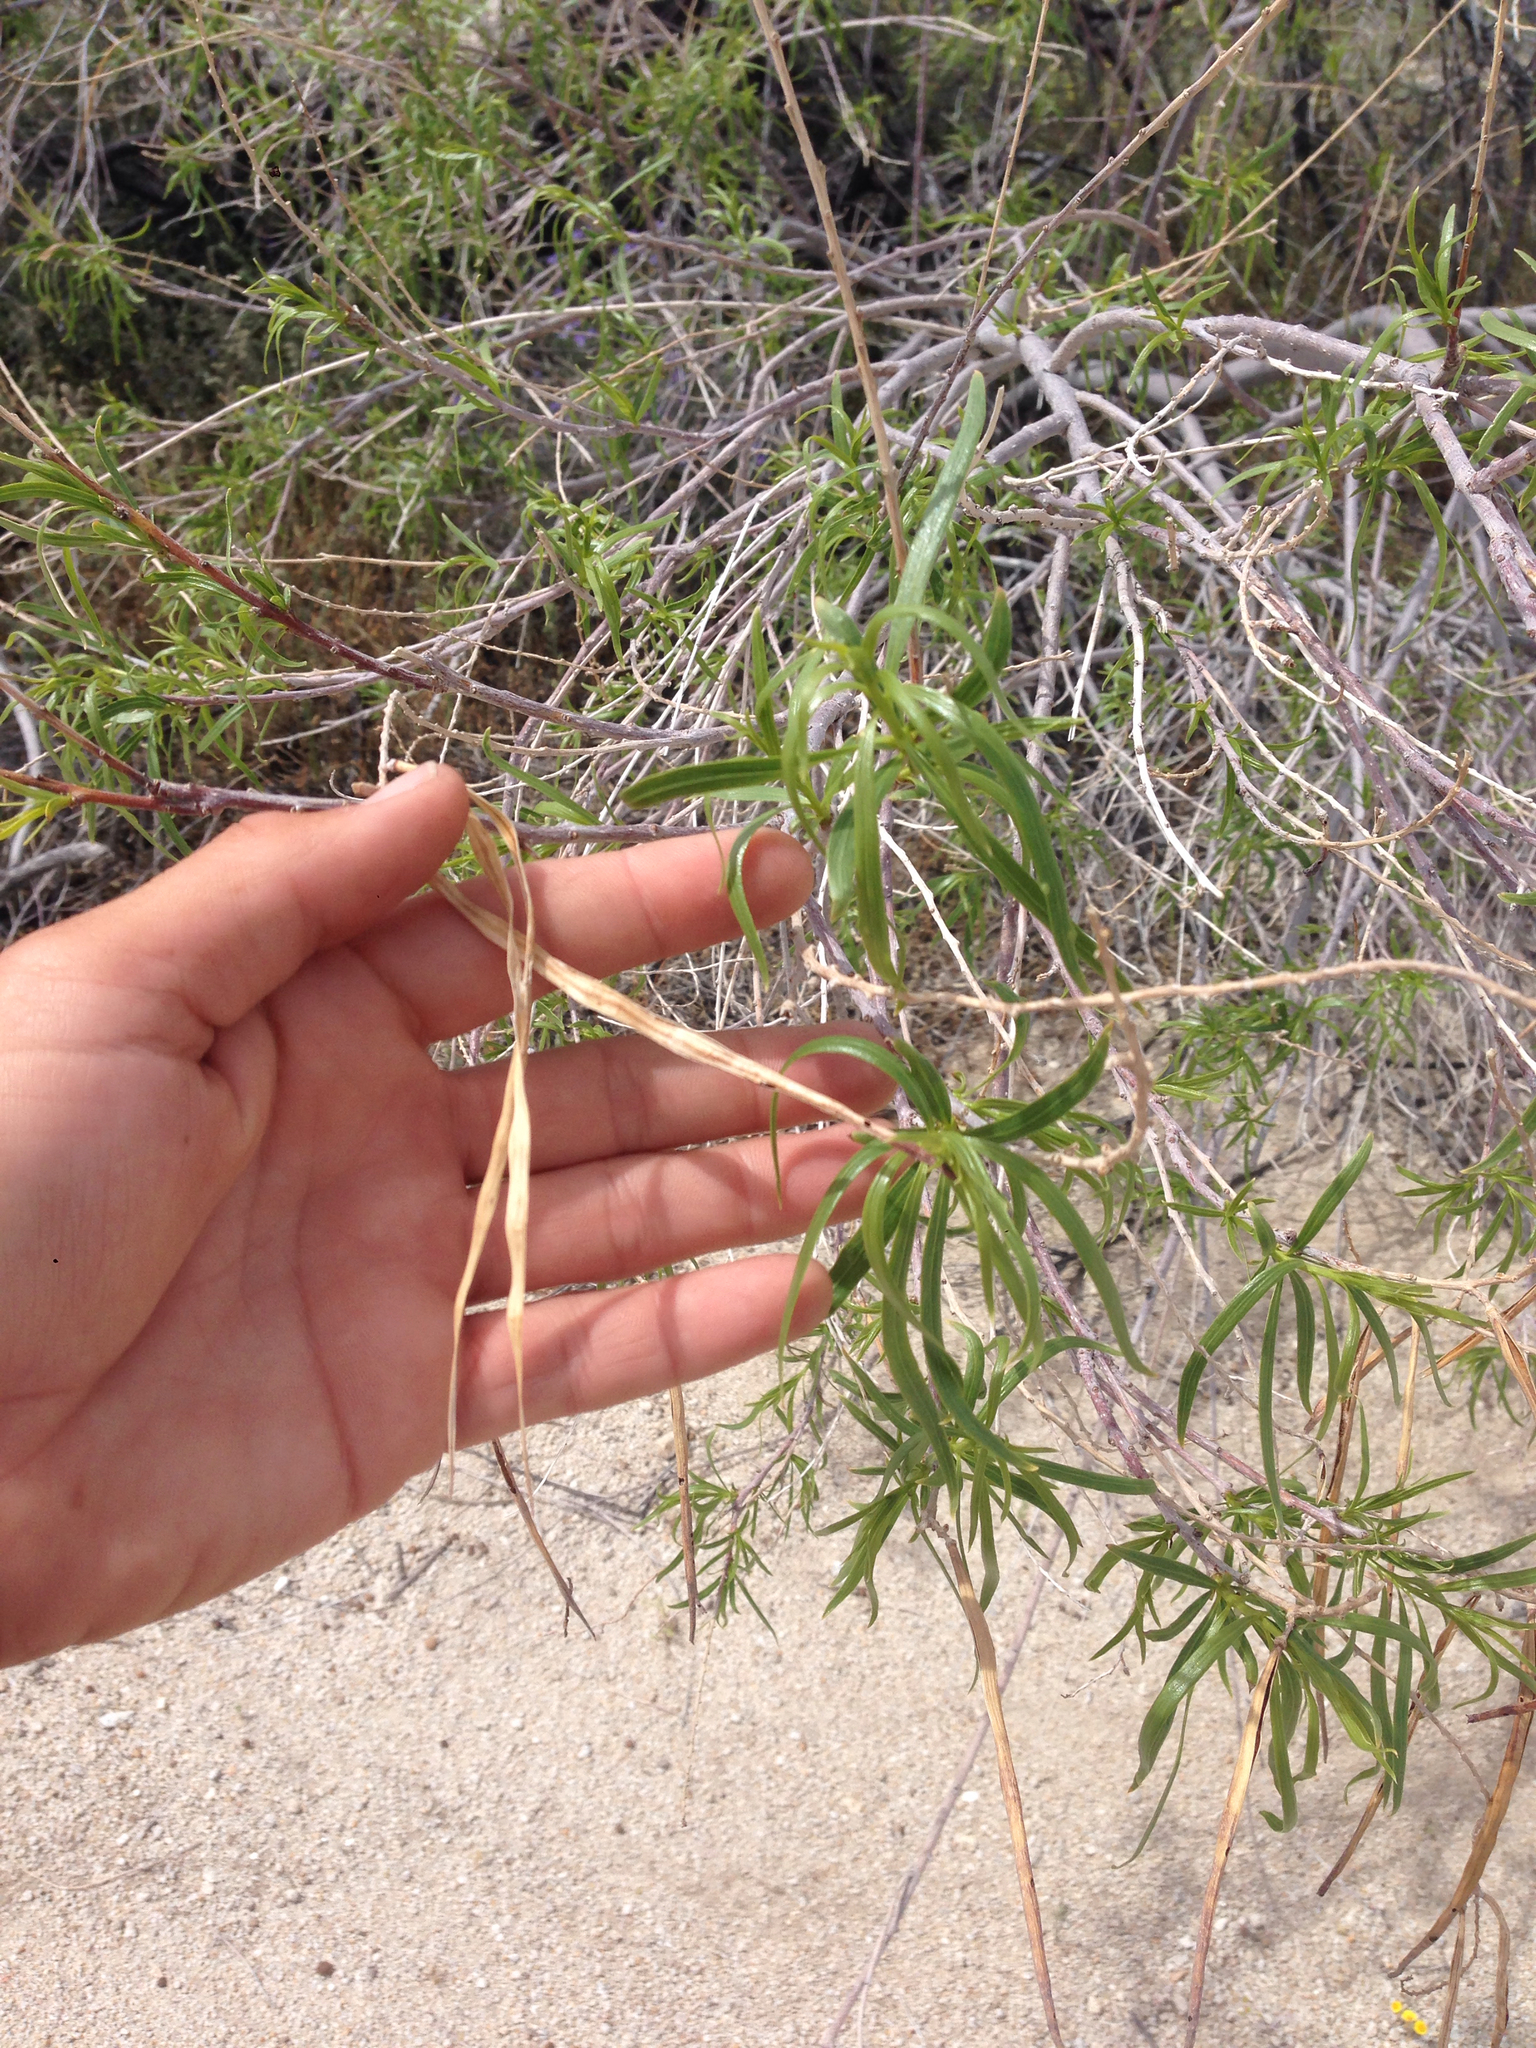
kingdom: Plantae
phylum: Tracheophyta
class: Magnoliopsida
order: Lamiales
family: Bignoniaceae
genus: Chilopsis
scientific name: Chilopsis linearis
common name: Desert-willow
